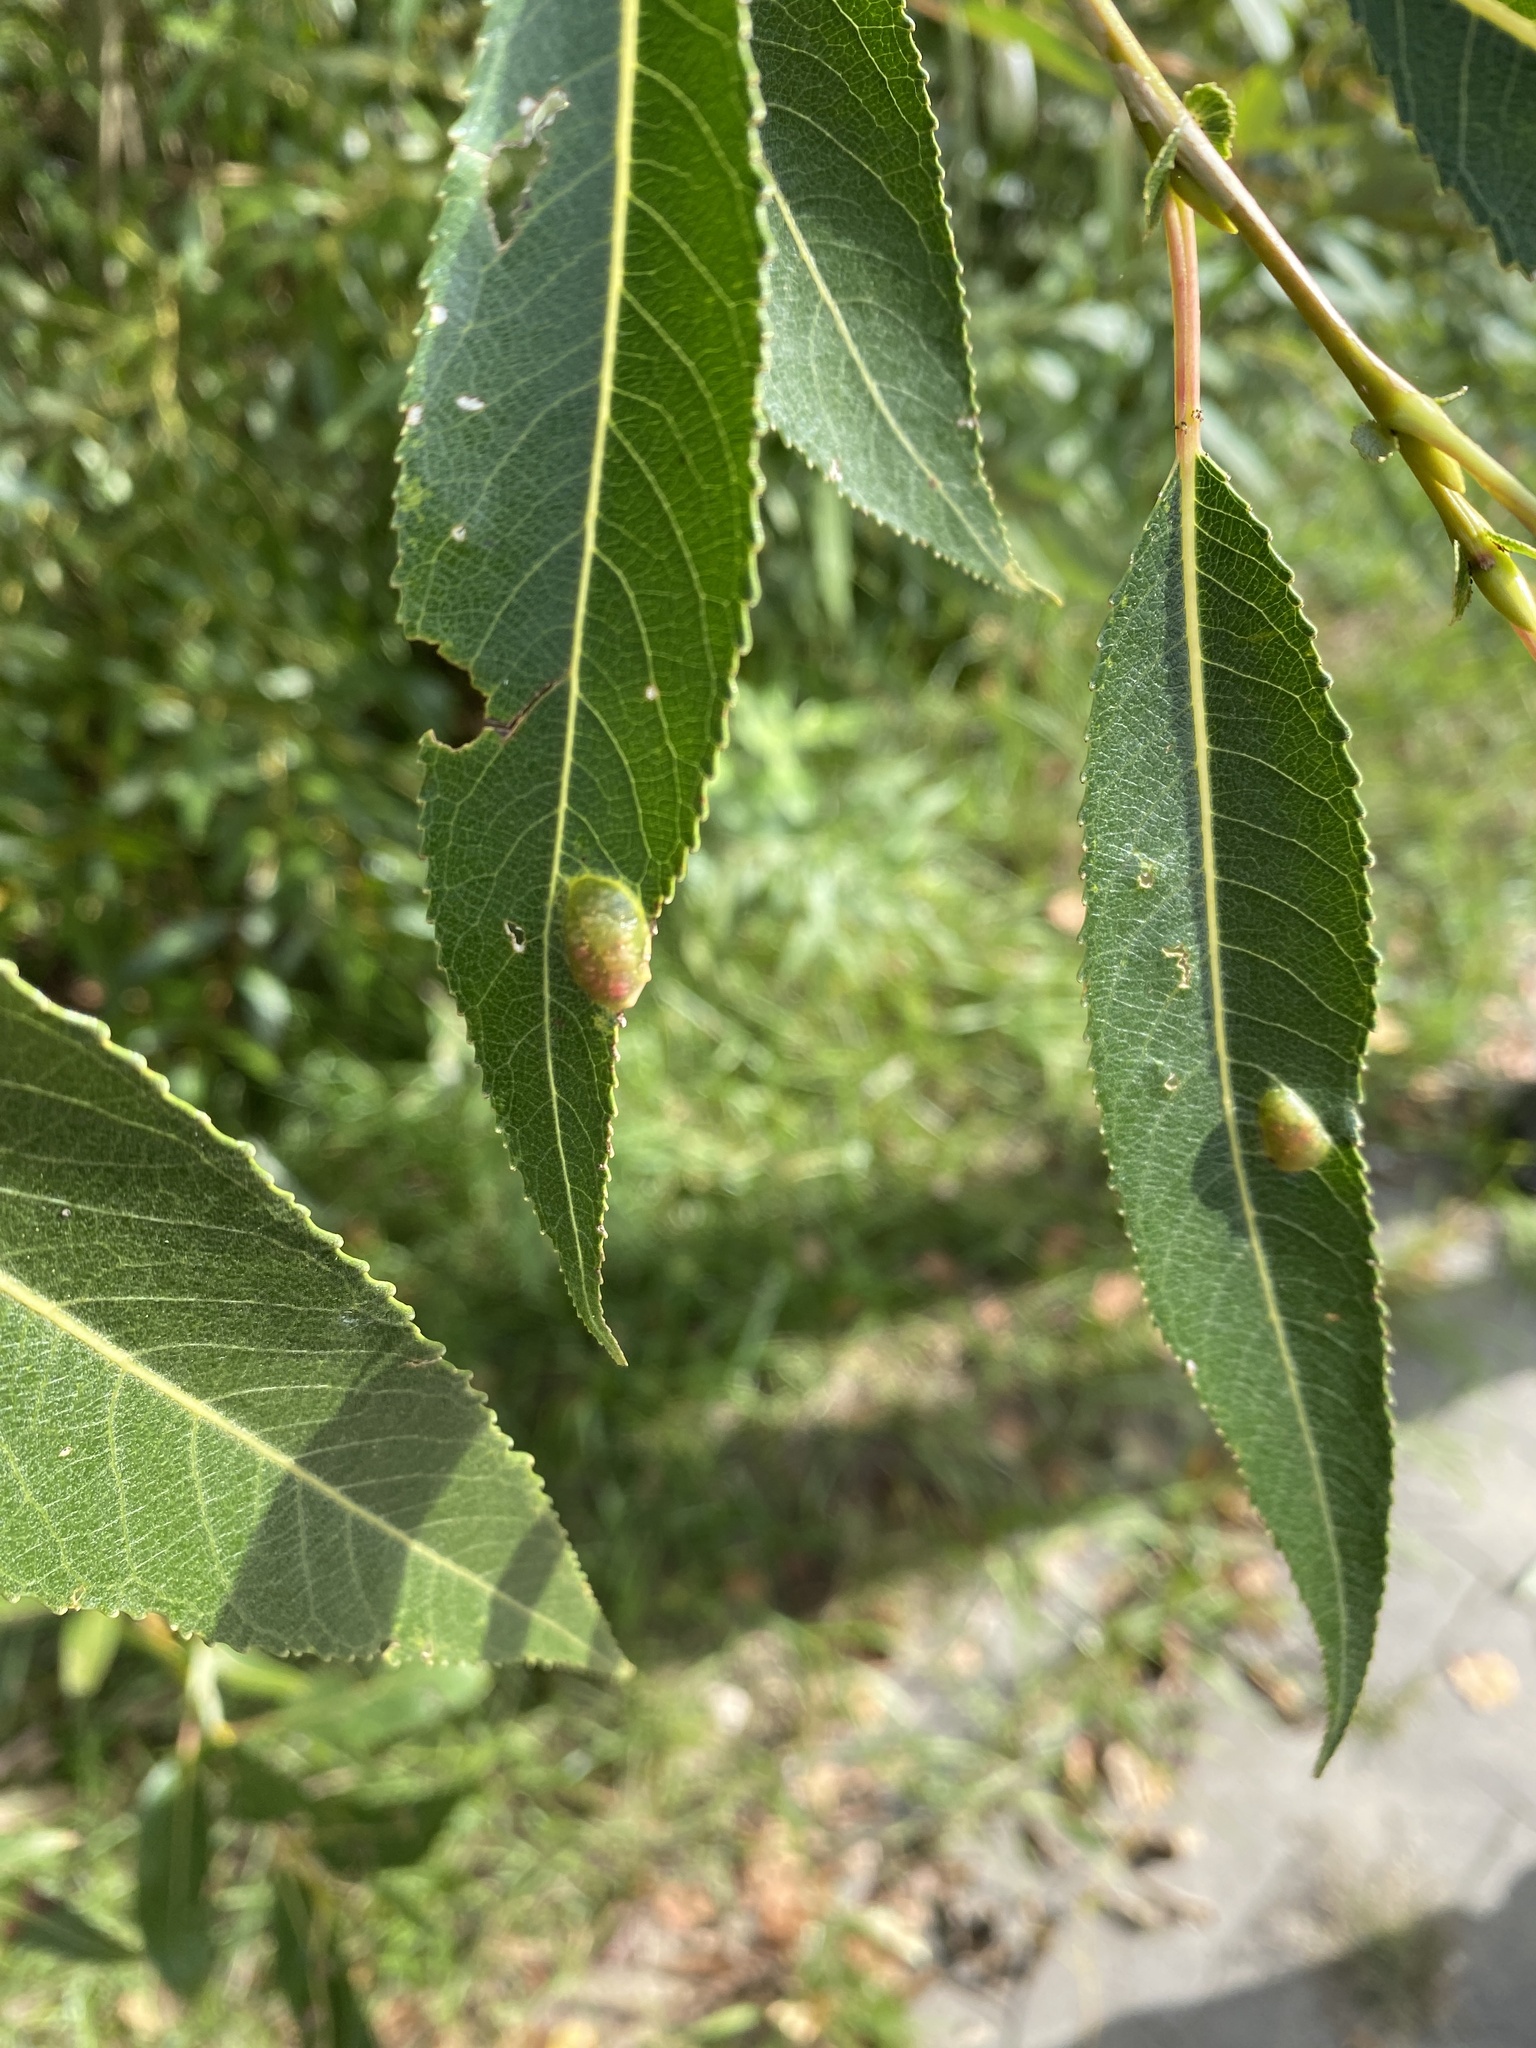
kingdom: Animalia
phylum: Arthropoda
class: Insecta
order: Hymenoptera
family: Tenthredinidae
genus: Pontania
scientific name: Pontania proxima
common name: Common sawfly
